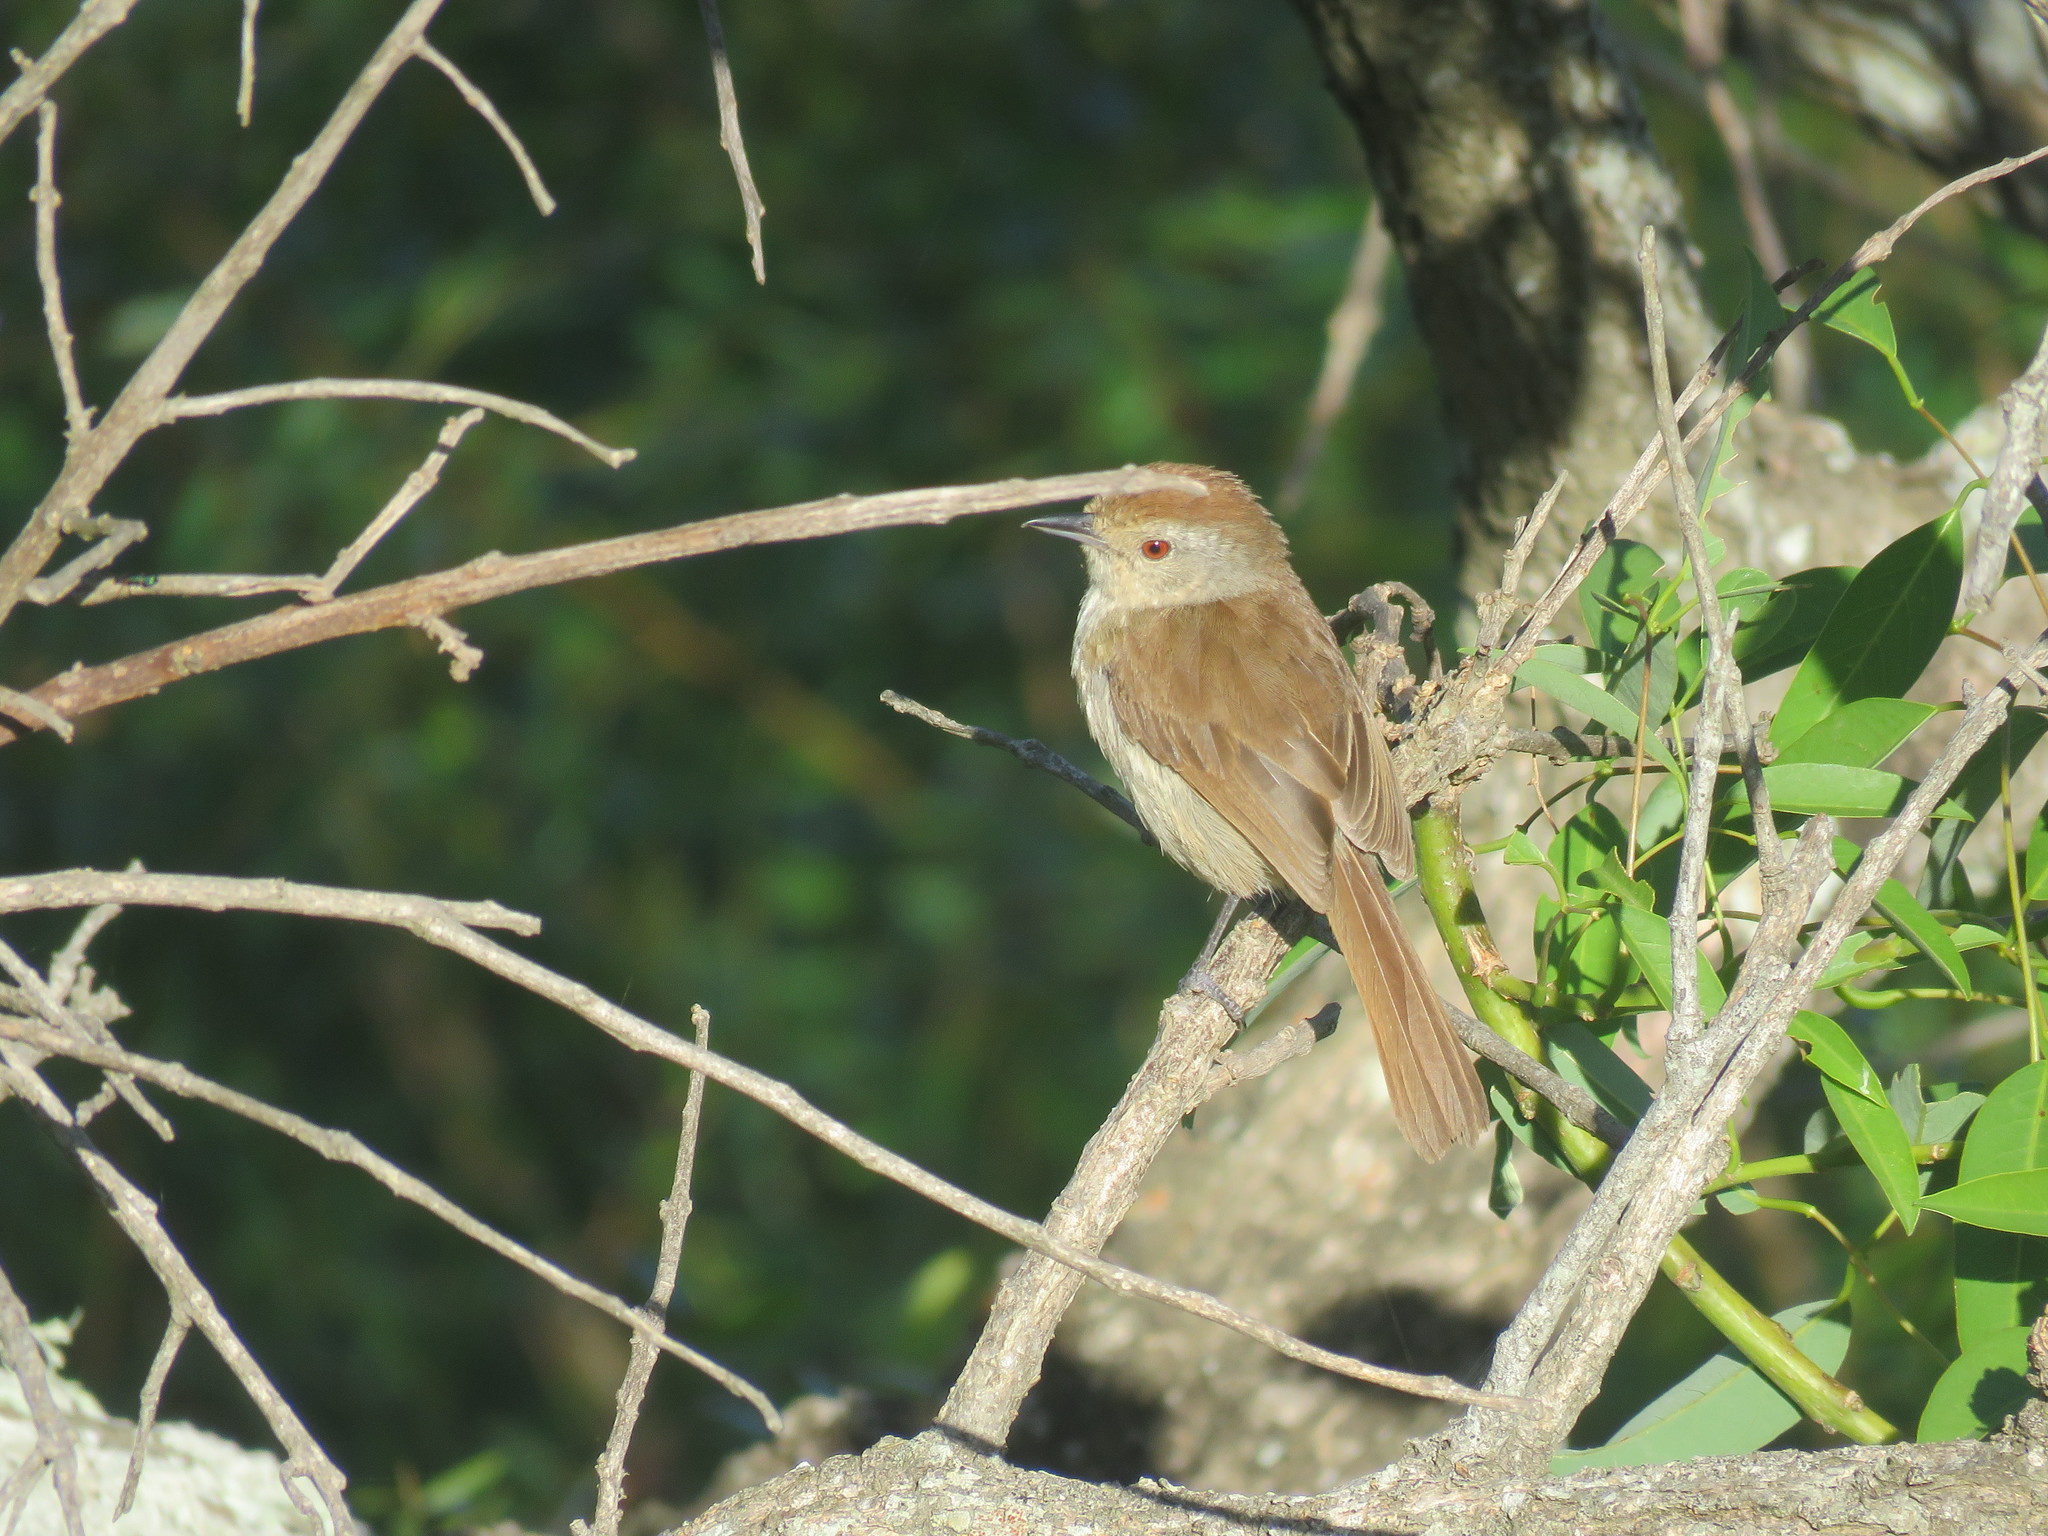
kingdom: Animalia
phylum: Chordata
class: Aves
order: Passeriformes
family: Thamnophilidae
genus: Thamnophilus
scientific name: Thamnophilus ruficapillus
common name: Rufous-capped antshrike
